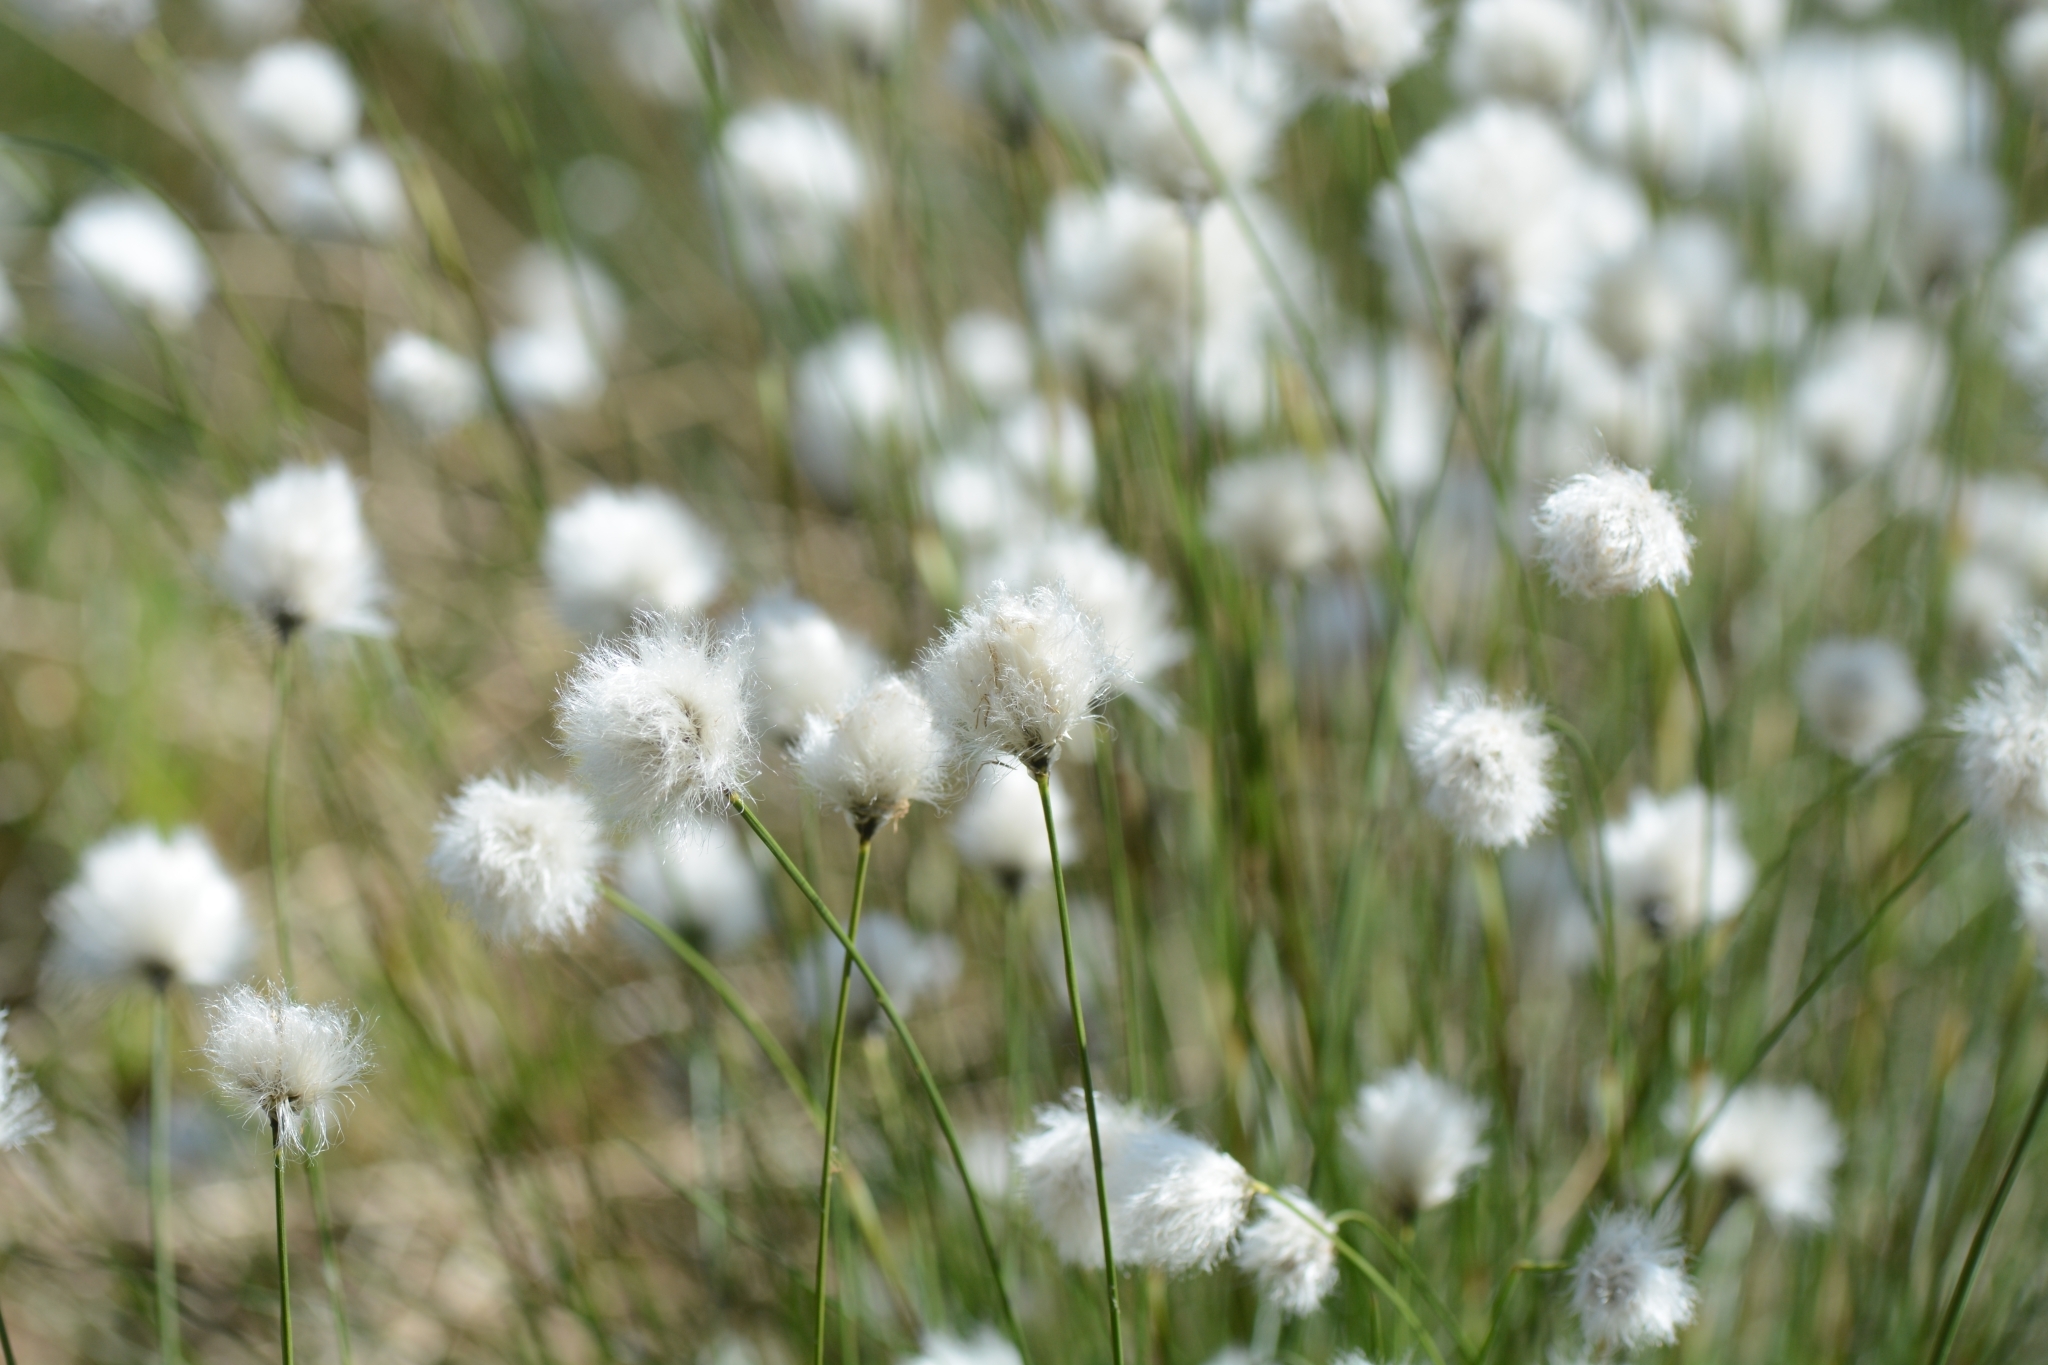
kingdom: Plantae
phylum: Tracheophyta
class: Liliopsida
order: Poales
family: Cyperaceae
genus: Eriophorum
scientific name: Eriophorum vaginatum
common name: Hare's-tail cottongrass
